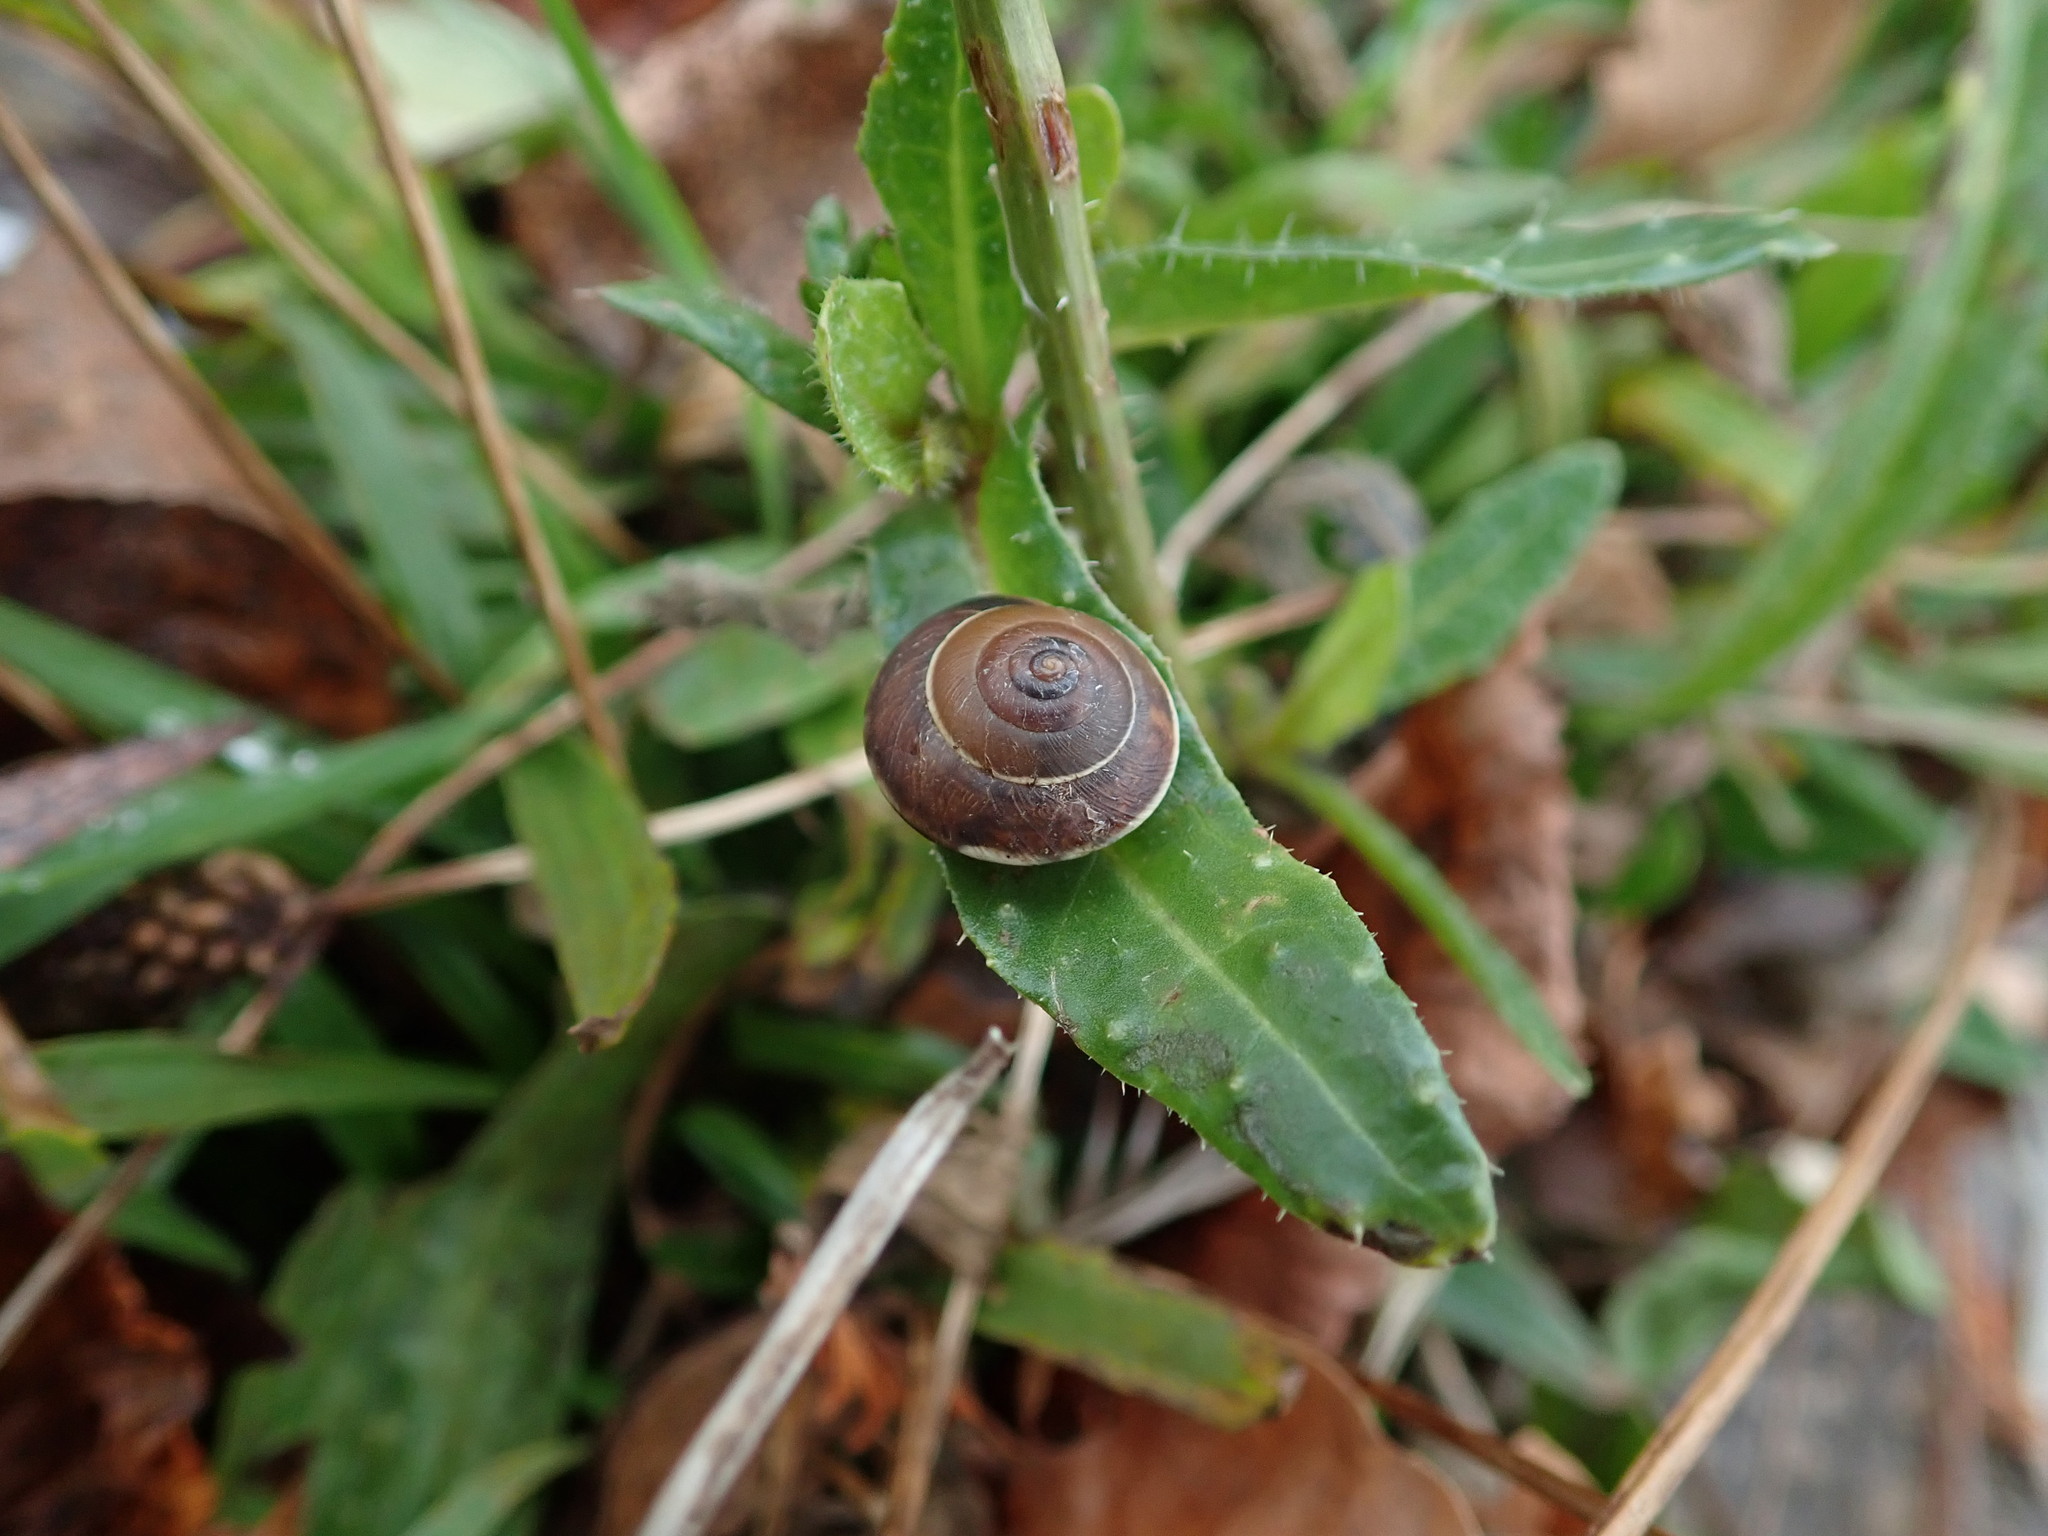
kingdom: Animalia
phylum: Mollusca
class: Gastropoda
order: Stylommatophora
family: Hygromiidae
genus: Hygromia
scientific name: Hygromia cinctella
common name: Girdled snail
